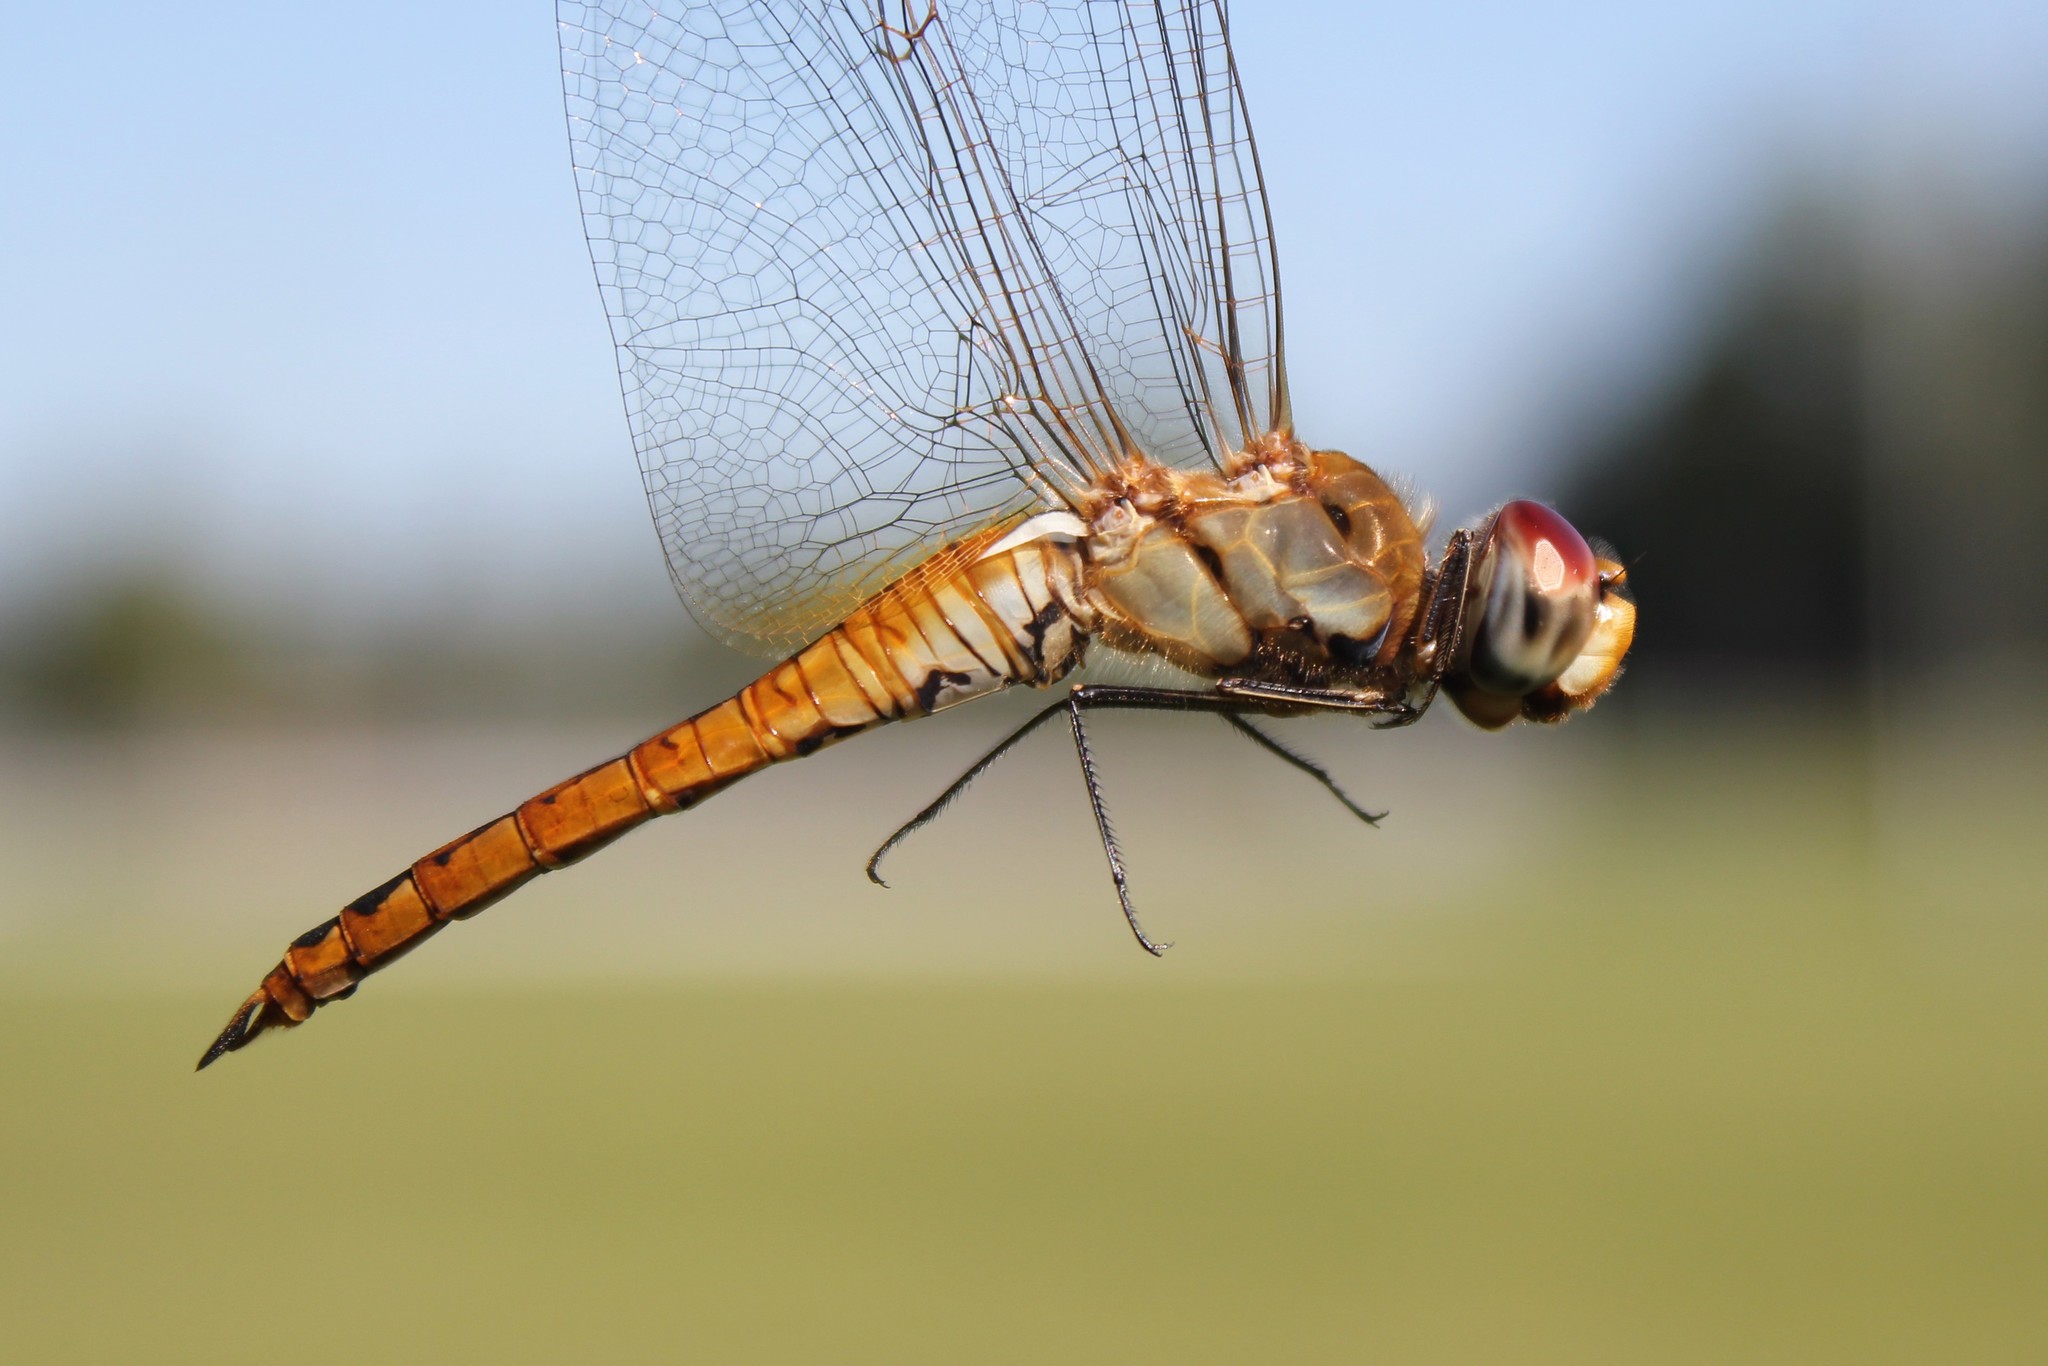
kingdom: Animalia
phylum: Arthropoda
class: Insecta
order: Odonata
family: Libellulidae
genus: Pantala
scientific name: Pantala flavescens
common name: Wandering glider
